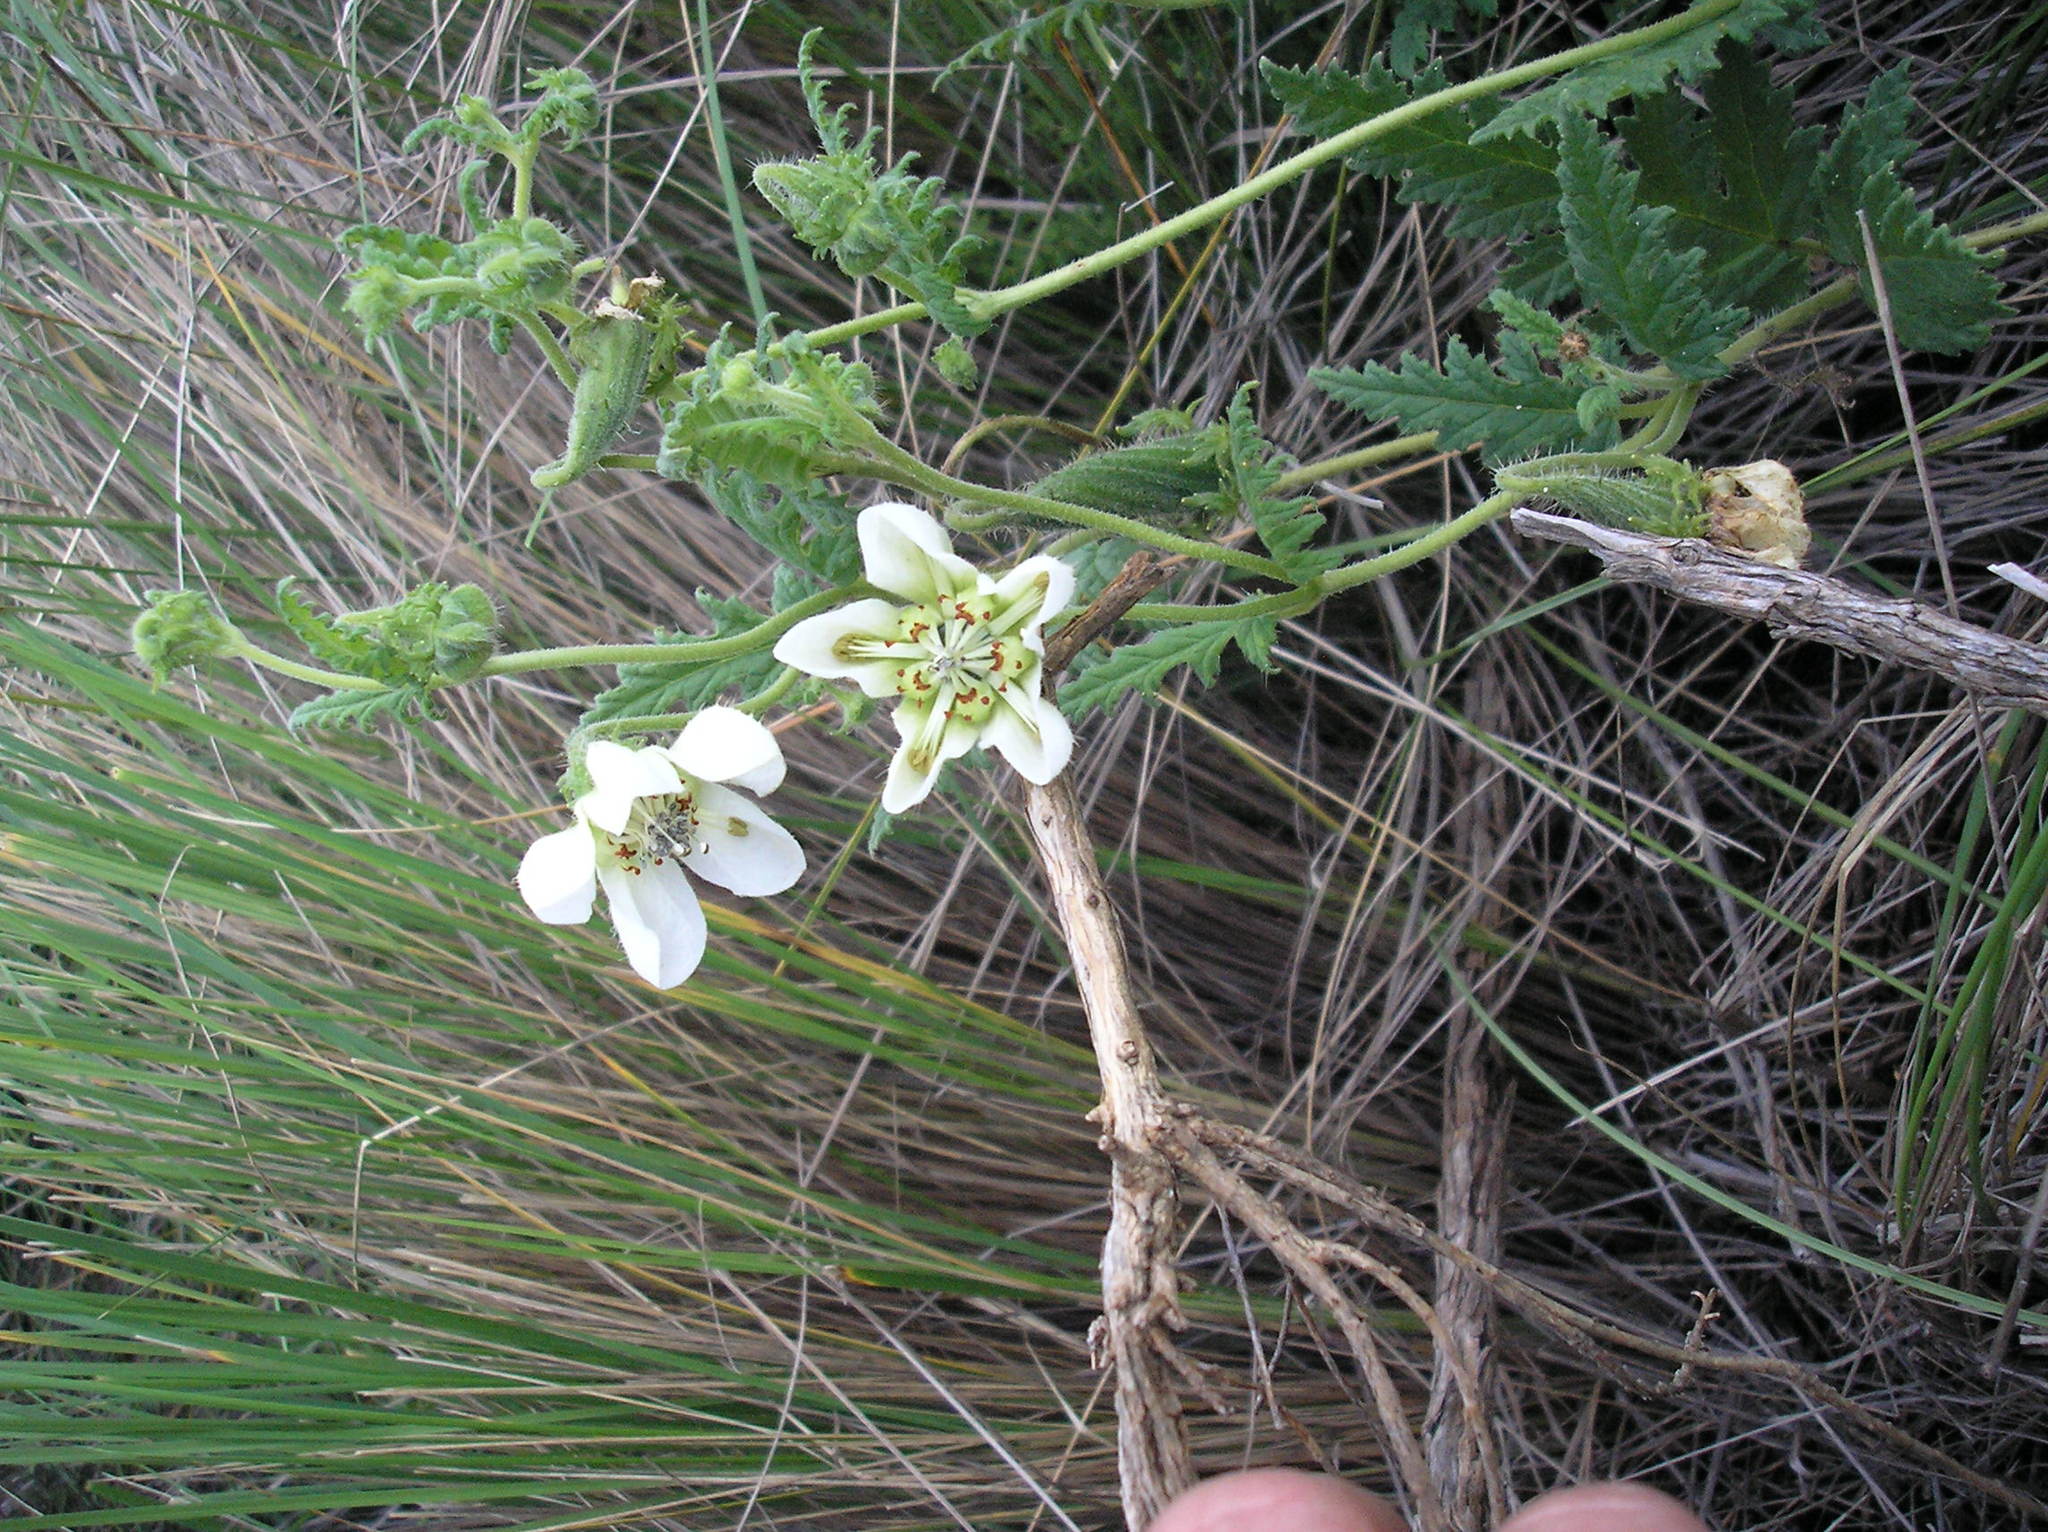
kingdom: Plantae
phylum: Tracheophyta
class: Magnoliopsida
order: Cornales
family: Loasaceae
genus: Caiophora
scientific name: Caiophora clavata
